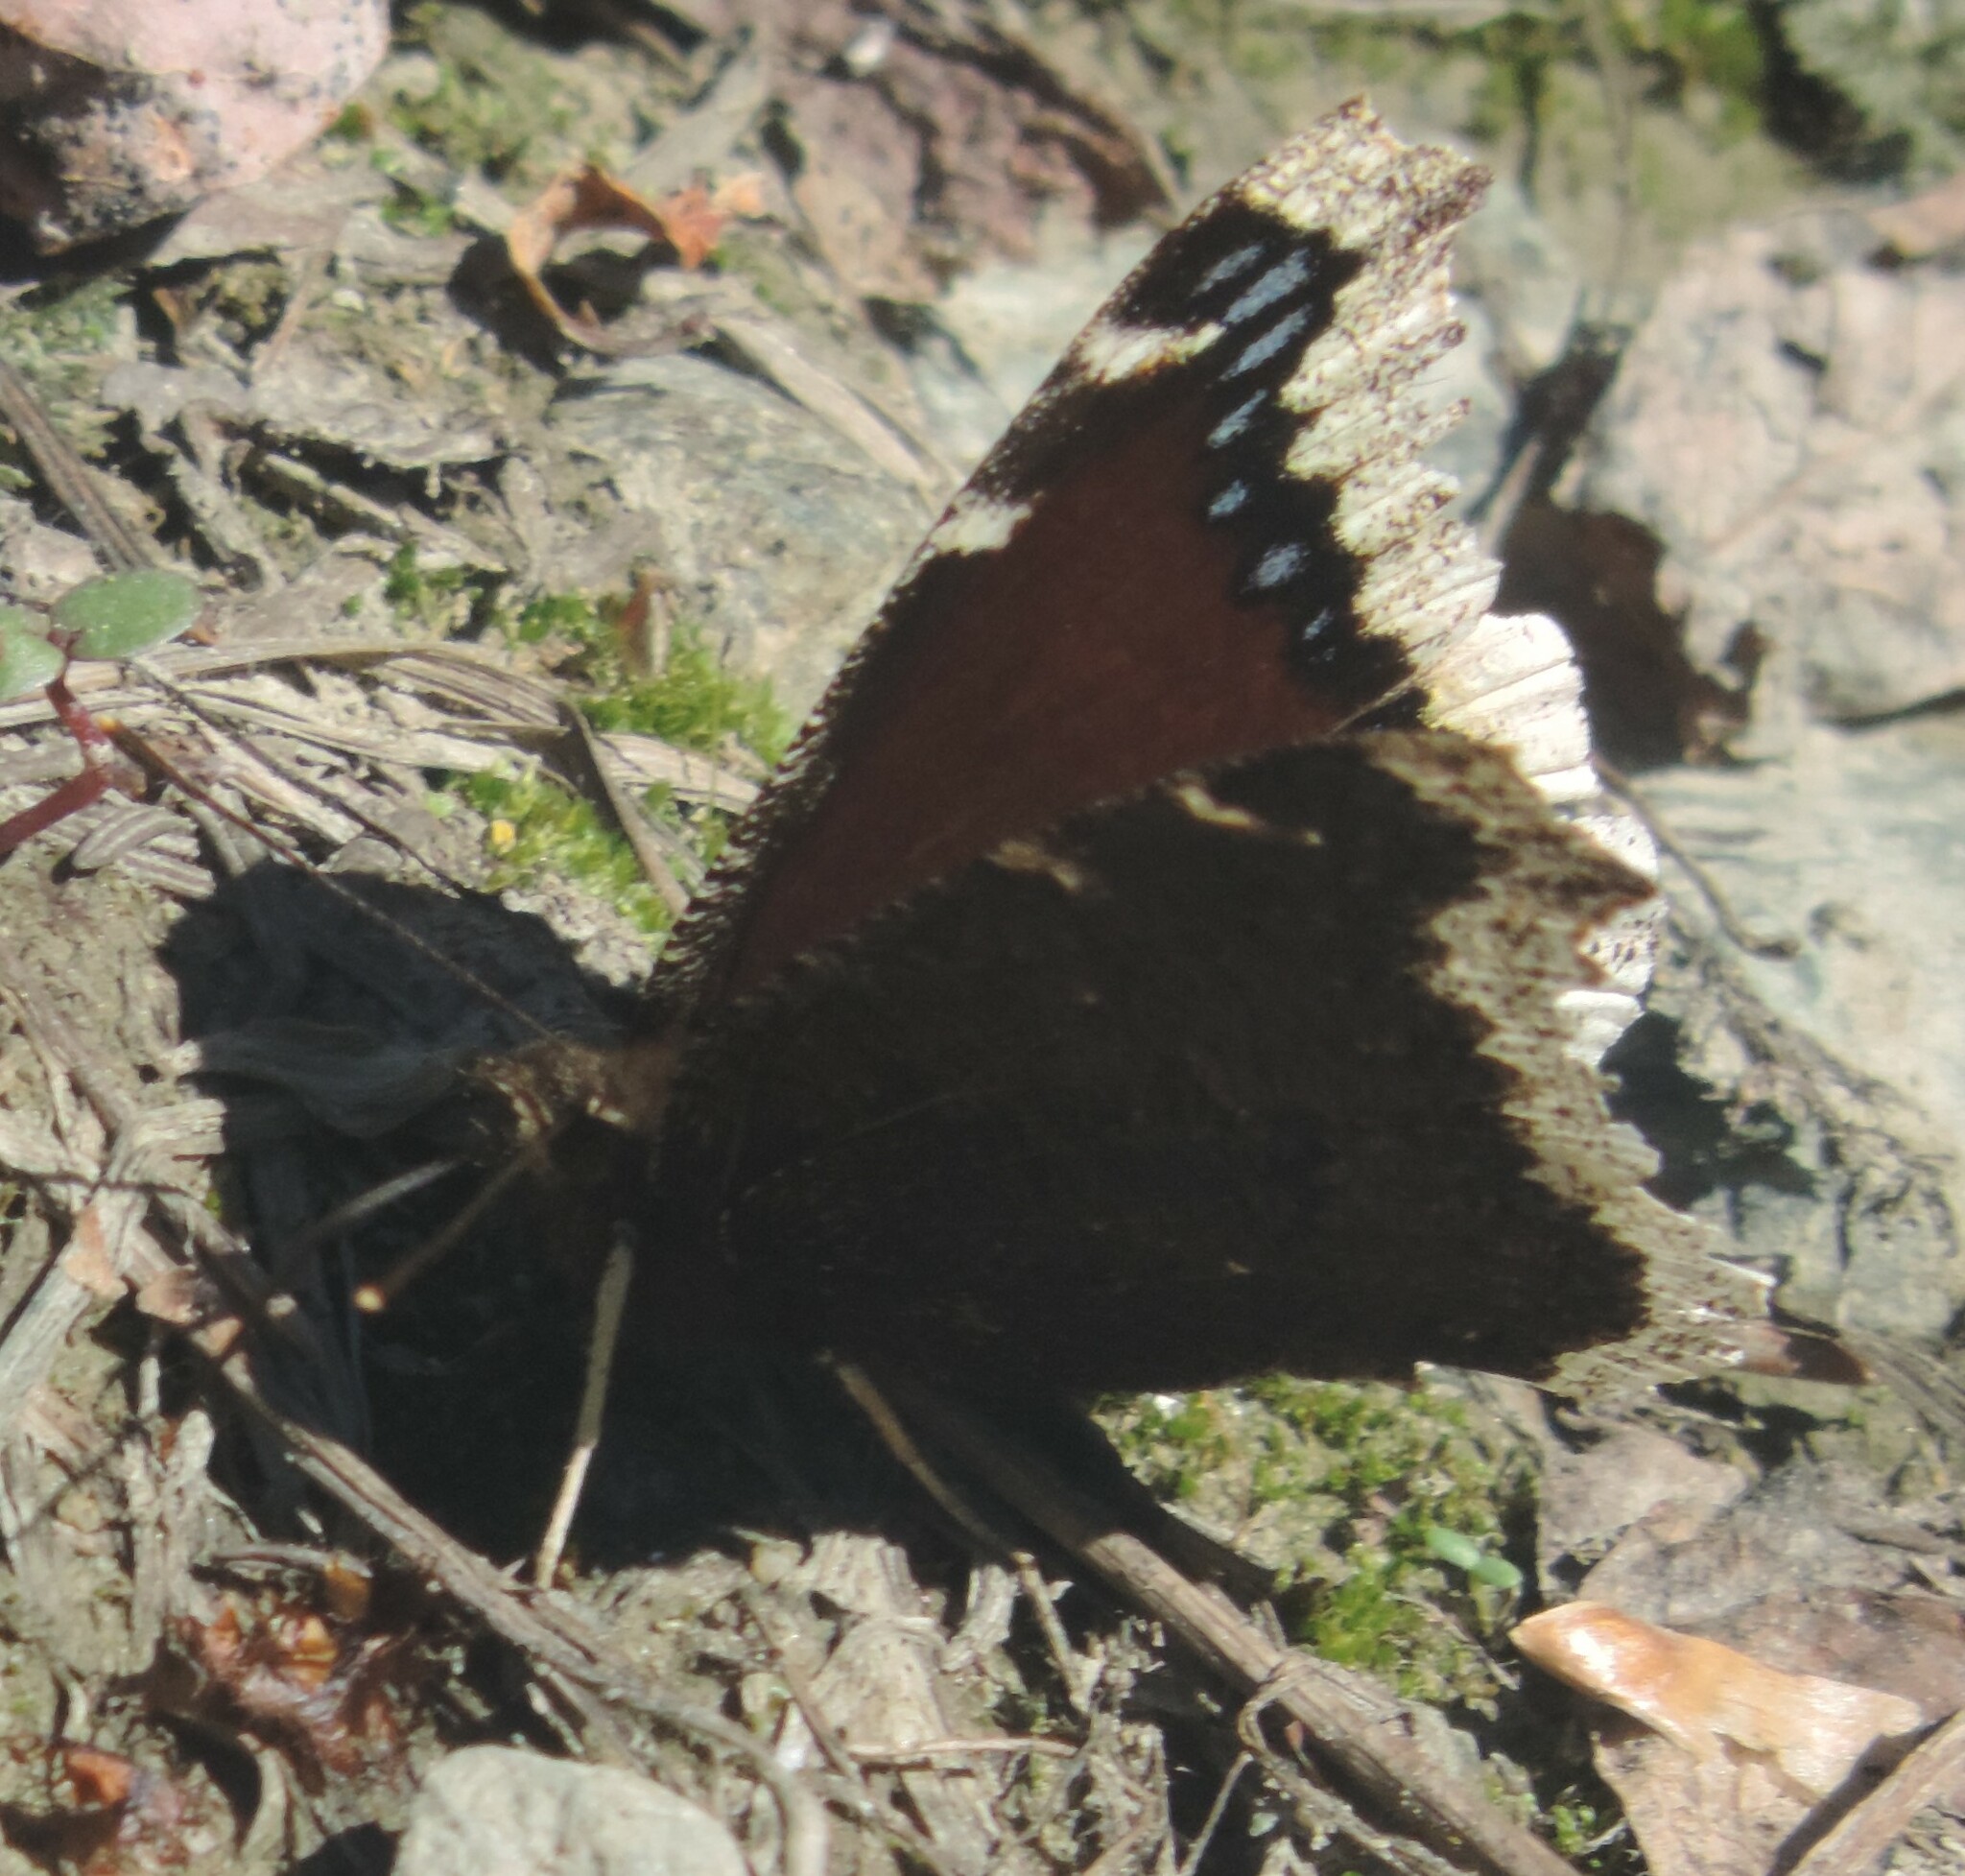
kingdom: Animalia
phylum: Arthropoda
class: Insecta
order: Lepidoptera
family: Nymphalidae
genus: Nymphalis
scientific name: Nymphalis antiopa
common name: Camberwell beauty
